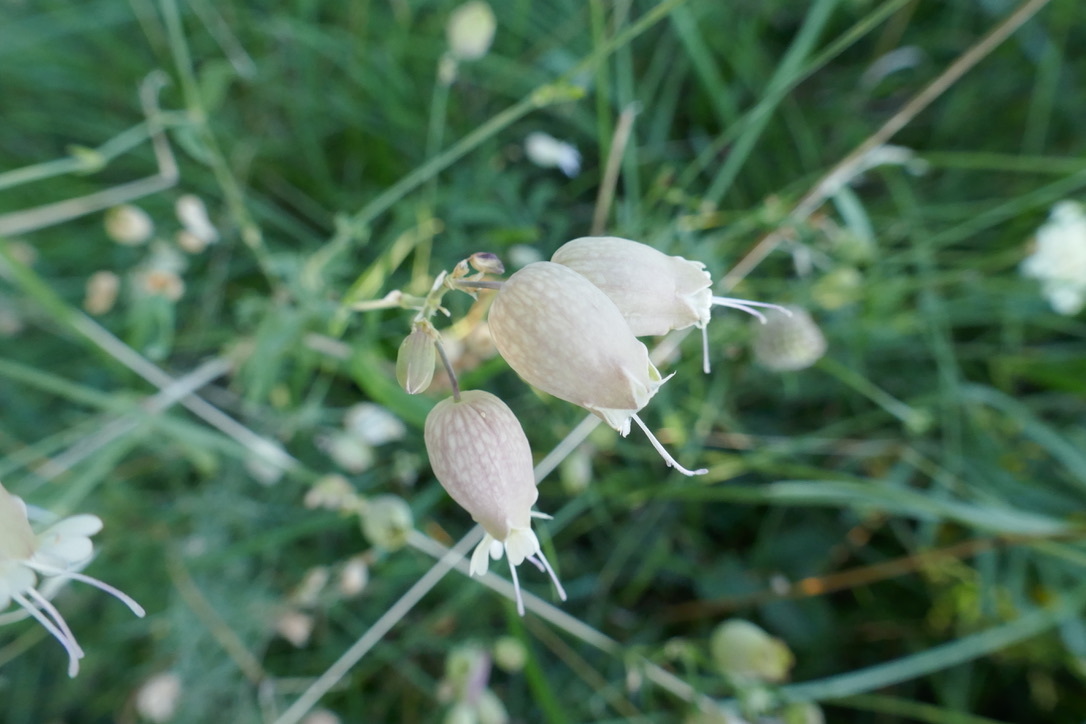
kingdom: Plantae
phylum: Tracheophyta
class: Magnoliopsida
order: Caryophyllales
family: Caryophyllaceae
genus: Silene
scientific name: Silene vulgaris
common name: Bladder campion
